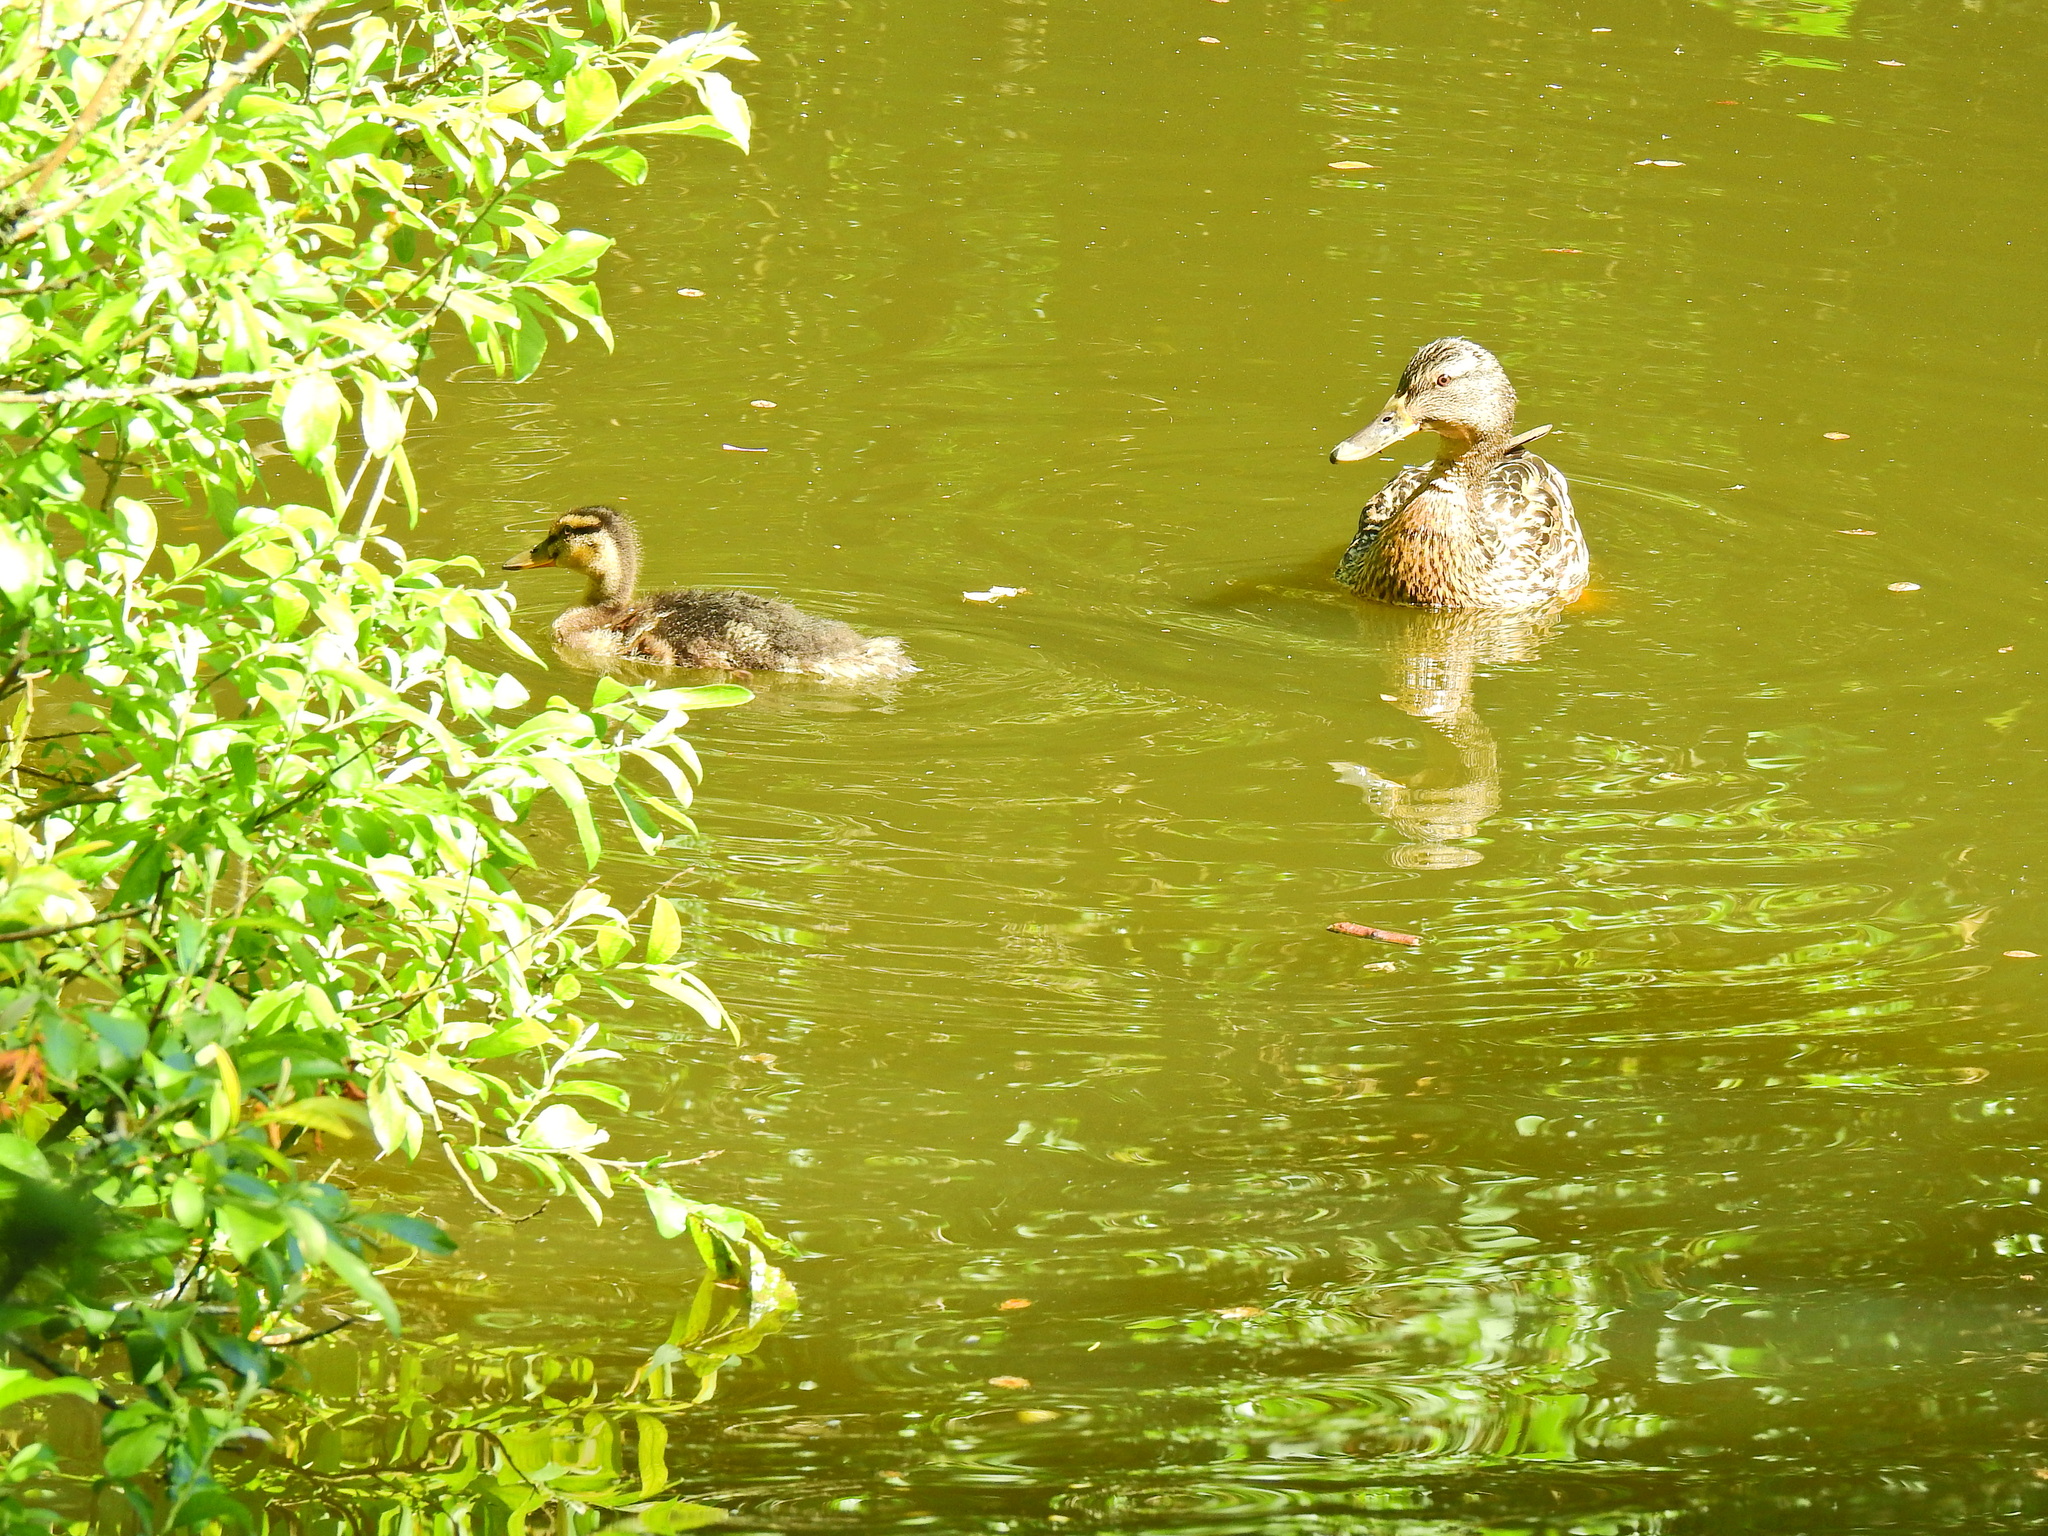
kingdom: Animalia
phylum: Chordata
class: Aves
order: Anseriformes
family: Anatidae
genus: Anas
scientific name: Anas platyrhynchos
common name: Mallard
